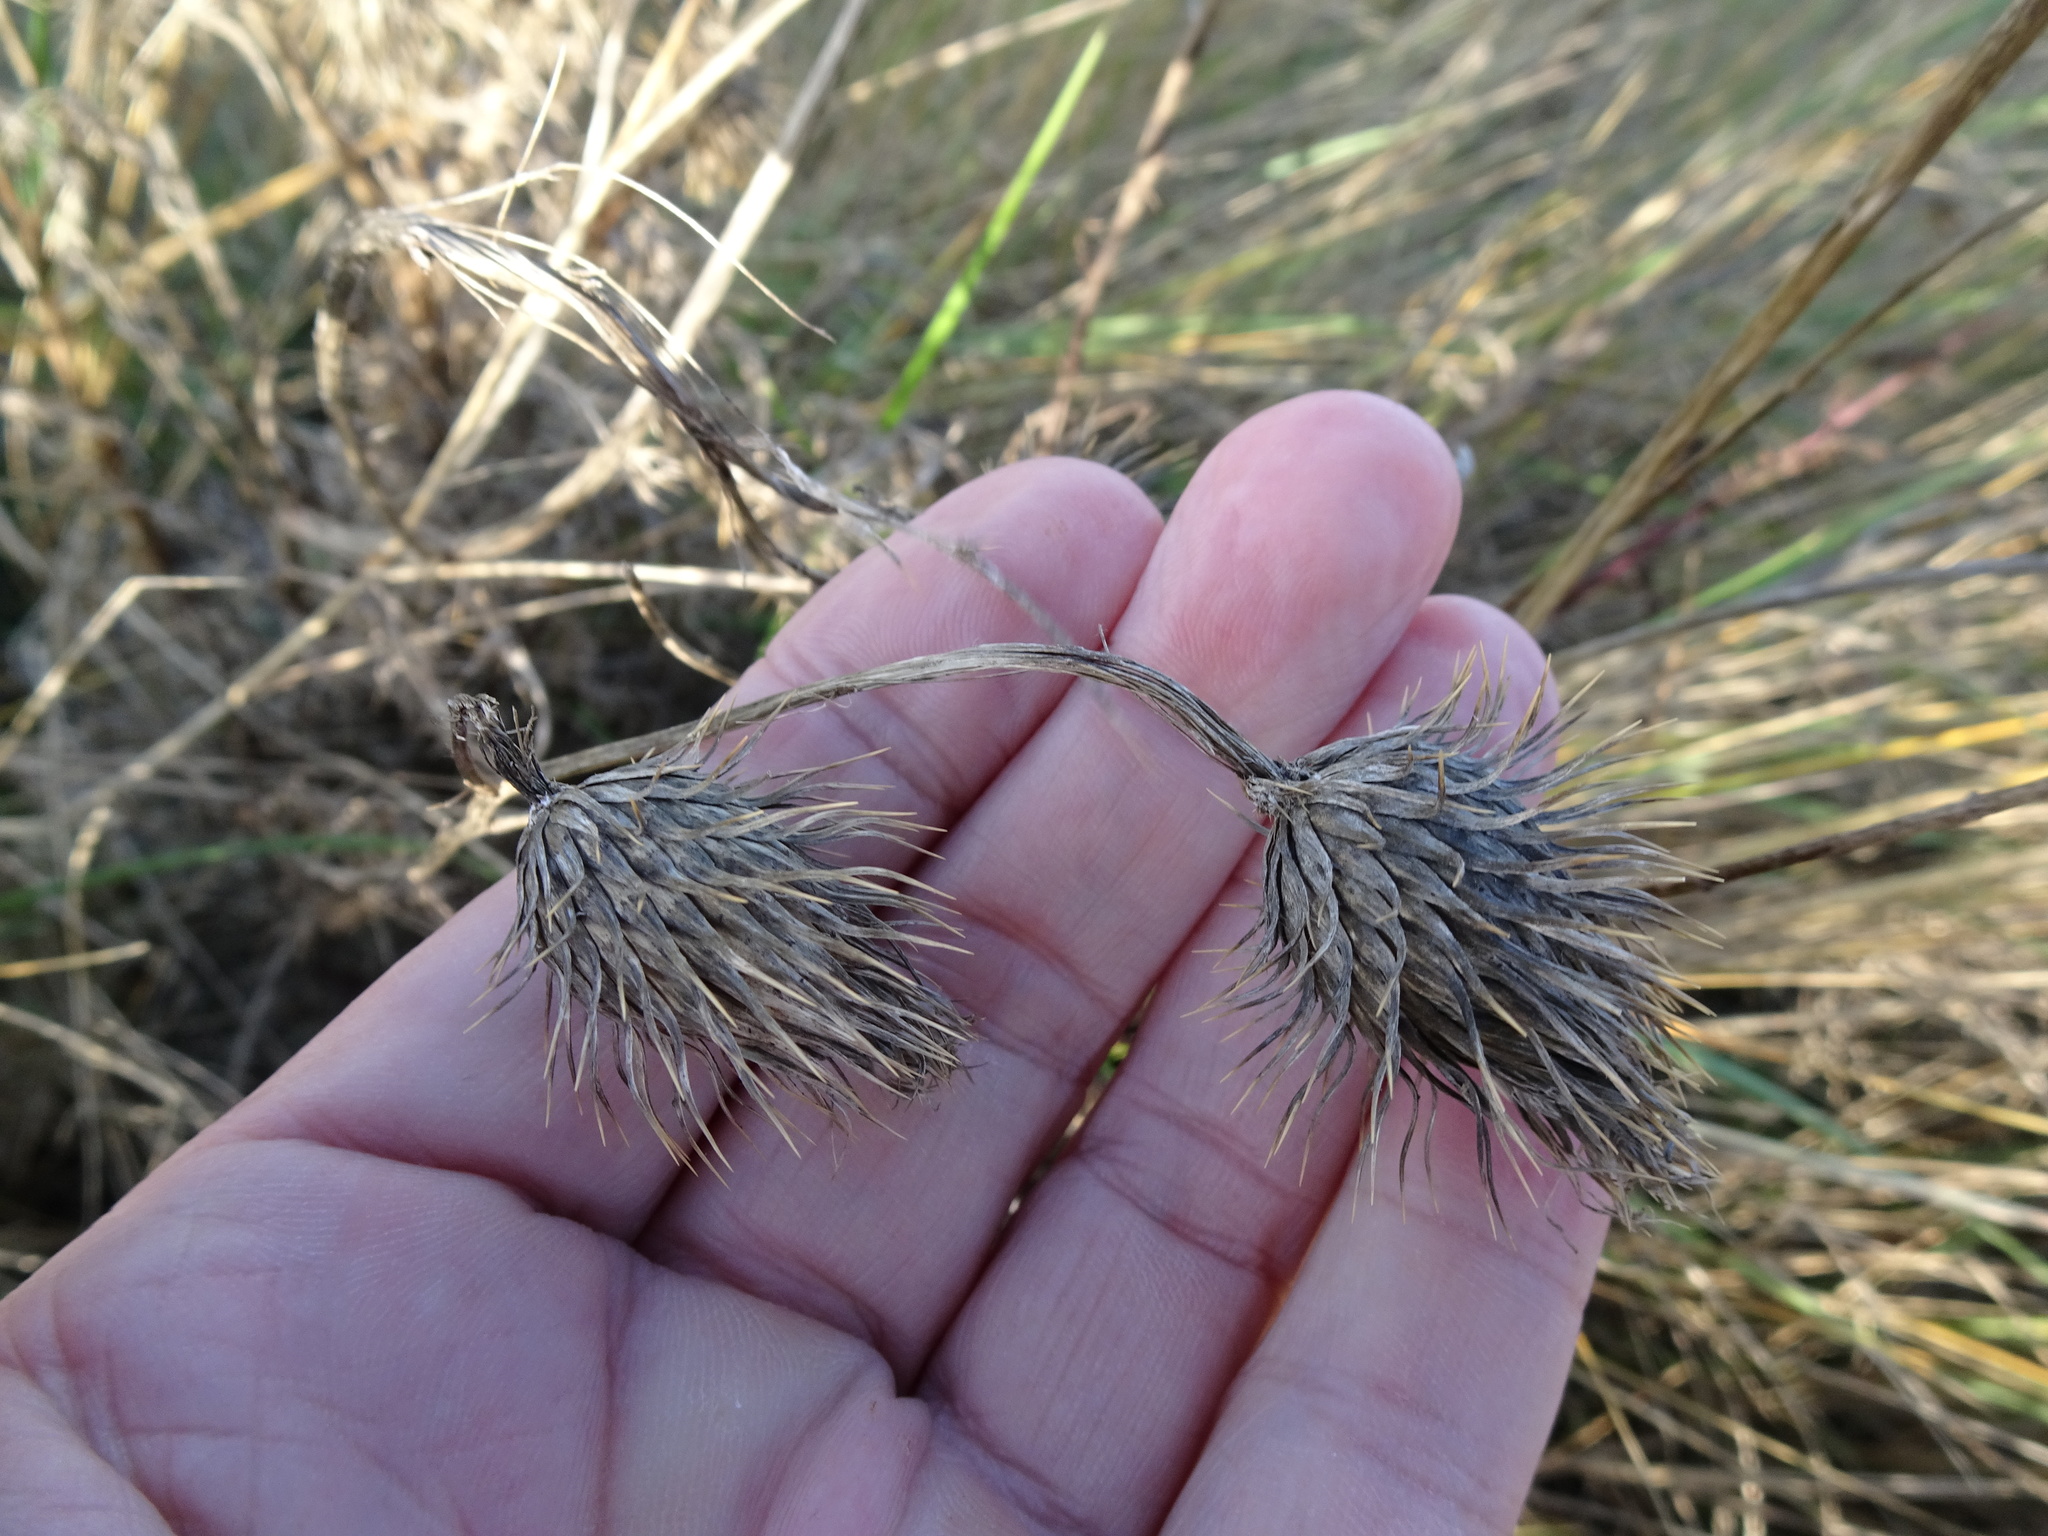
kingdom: Plantae
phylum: Tracheophyta
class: Magnoliopsida
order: Asterales
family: Asteraceae
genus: Cirsium
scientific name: Cirsium vulgare
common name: Bull thistle
